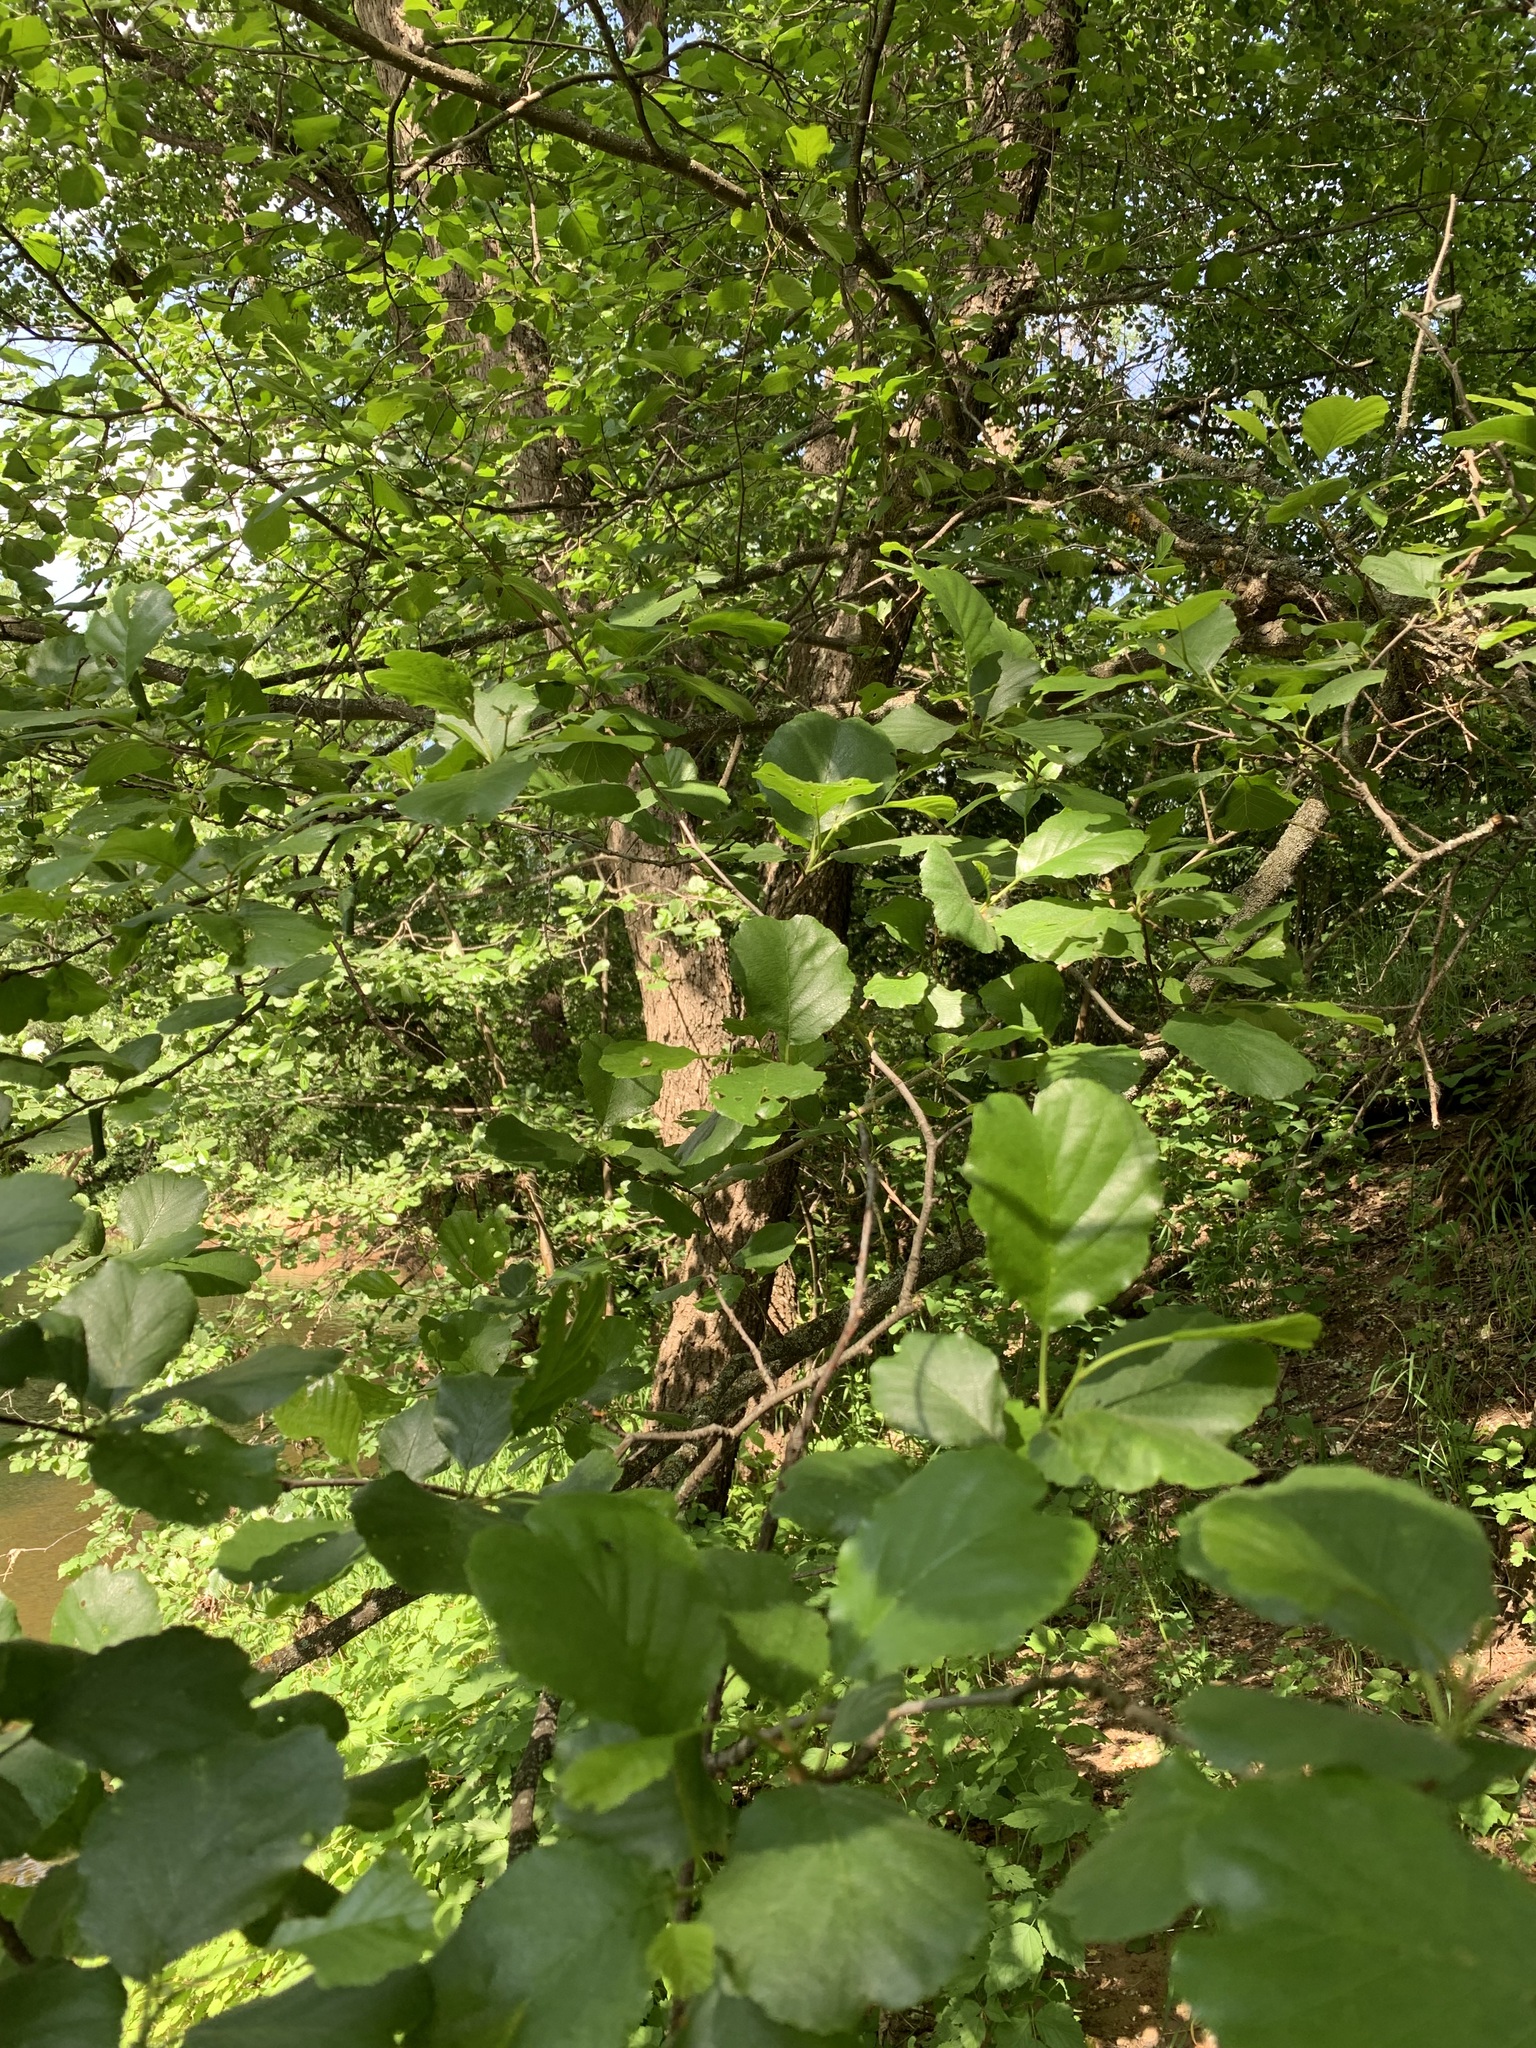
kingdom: Plantae
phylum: Tracheophyta
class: Magnoliopsida
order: Fagales
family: Betulaceae
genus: Alnus
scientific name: Alnus glutinosa
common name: Black alder
